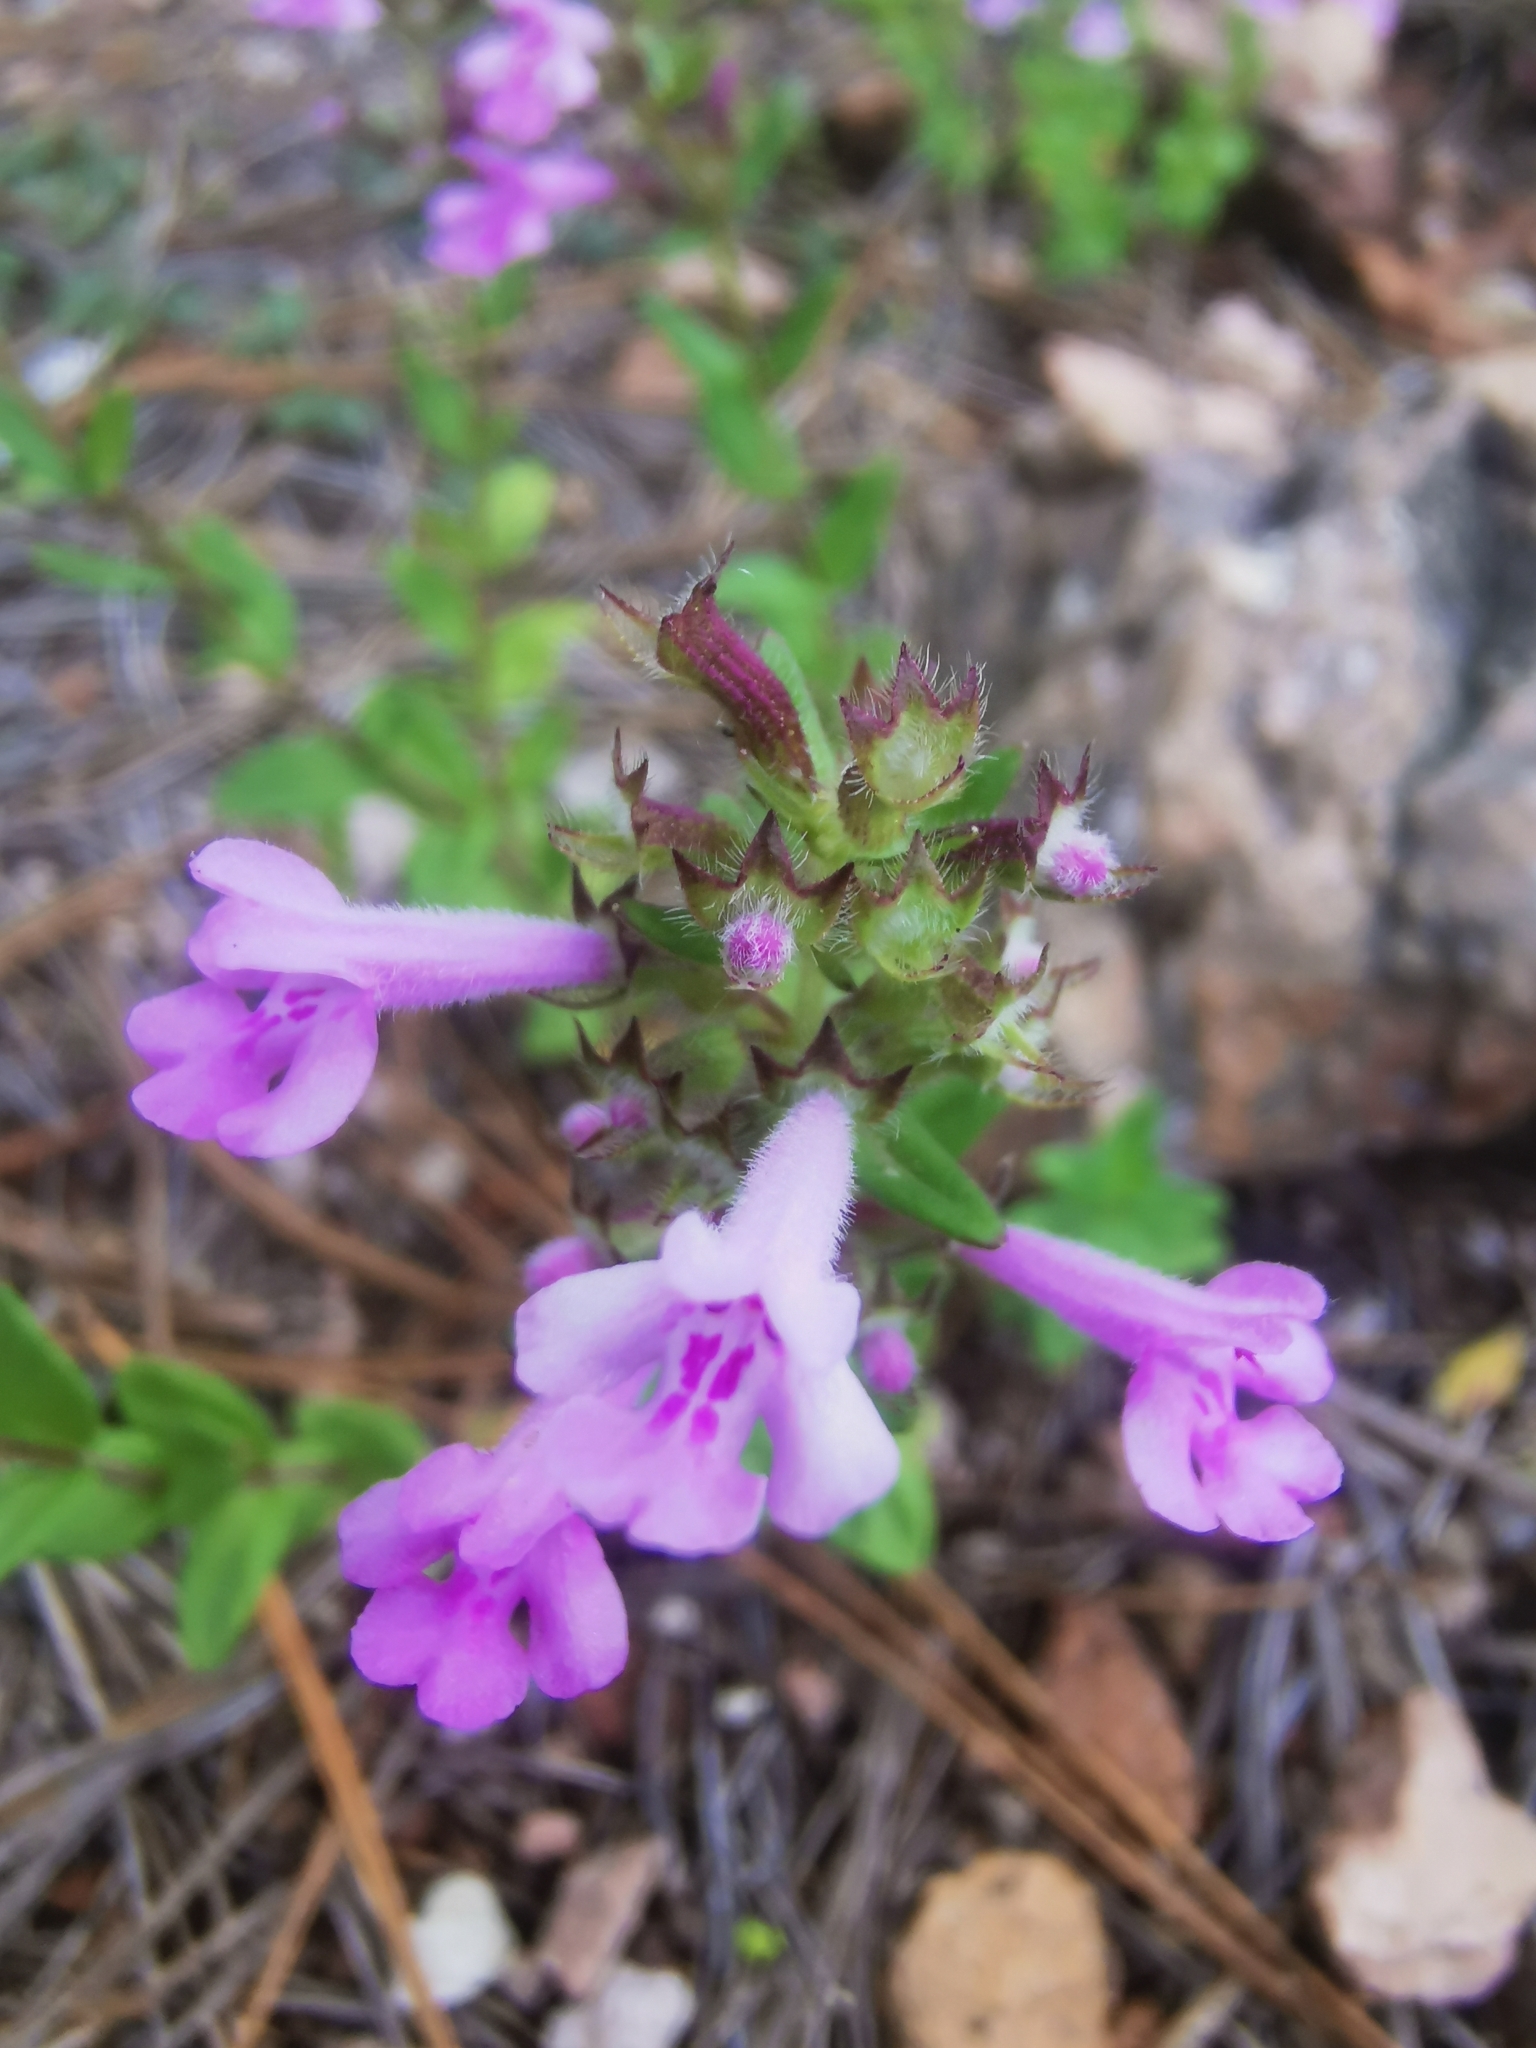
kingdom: Plantae
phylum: Tracheophyta
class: Magnoliopsida
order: Lamiales
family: Lamiaceae
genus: Hedeoma
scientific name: Hedeoma jucunda
